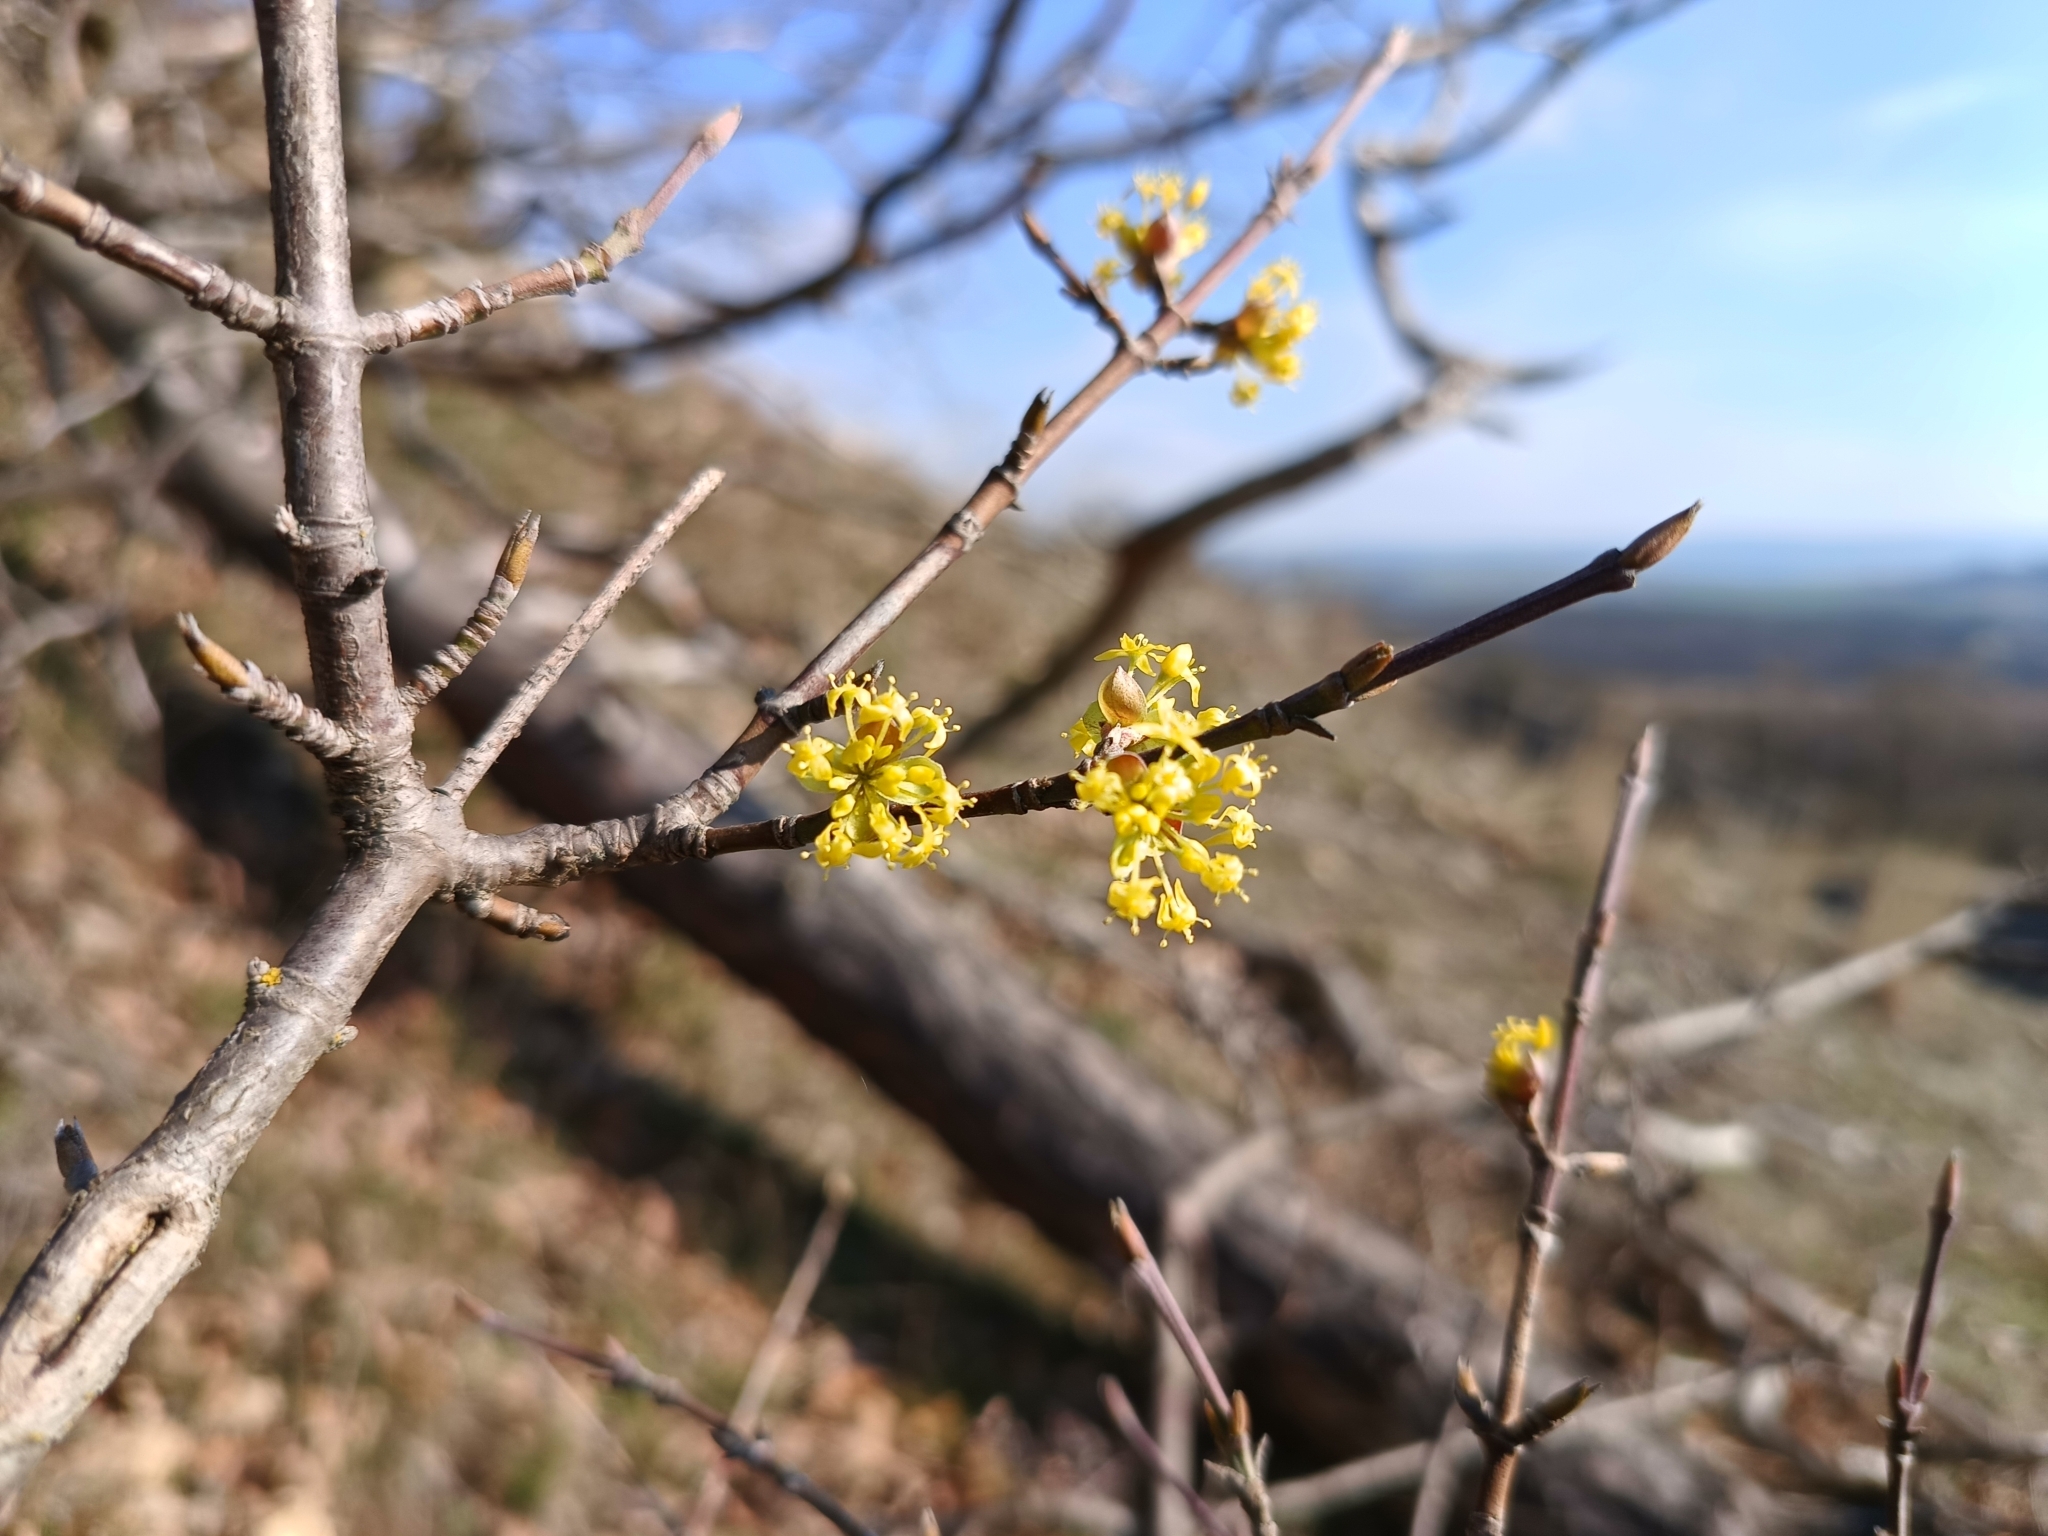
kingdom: Plantae
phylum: Tracheophyta
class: Magnoliopsida
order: Cornales
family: Cornaceae
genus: Cornus
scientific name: Cornus mas
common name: Cornelian-cherry
